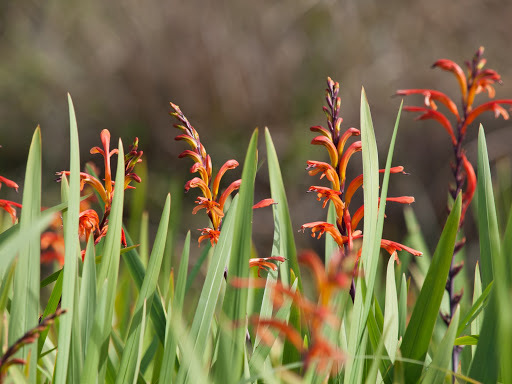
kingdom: Plantae
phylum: Tracheophyta
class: Liliopsida
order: Asparagales
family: Iridaceae
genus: Chasmanthe
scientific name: Chasmanthe floribunda
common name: African cornflag
